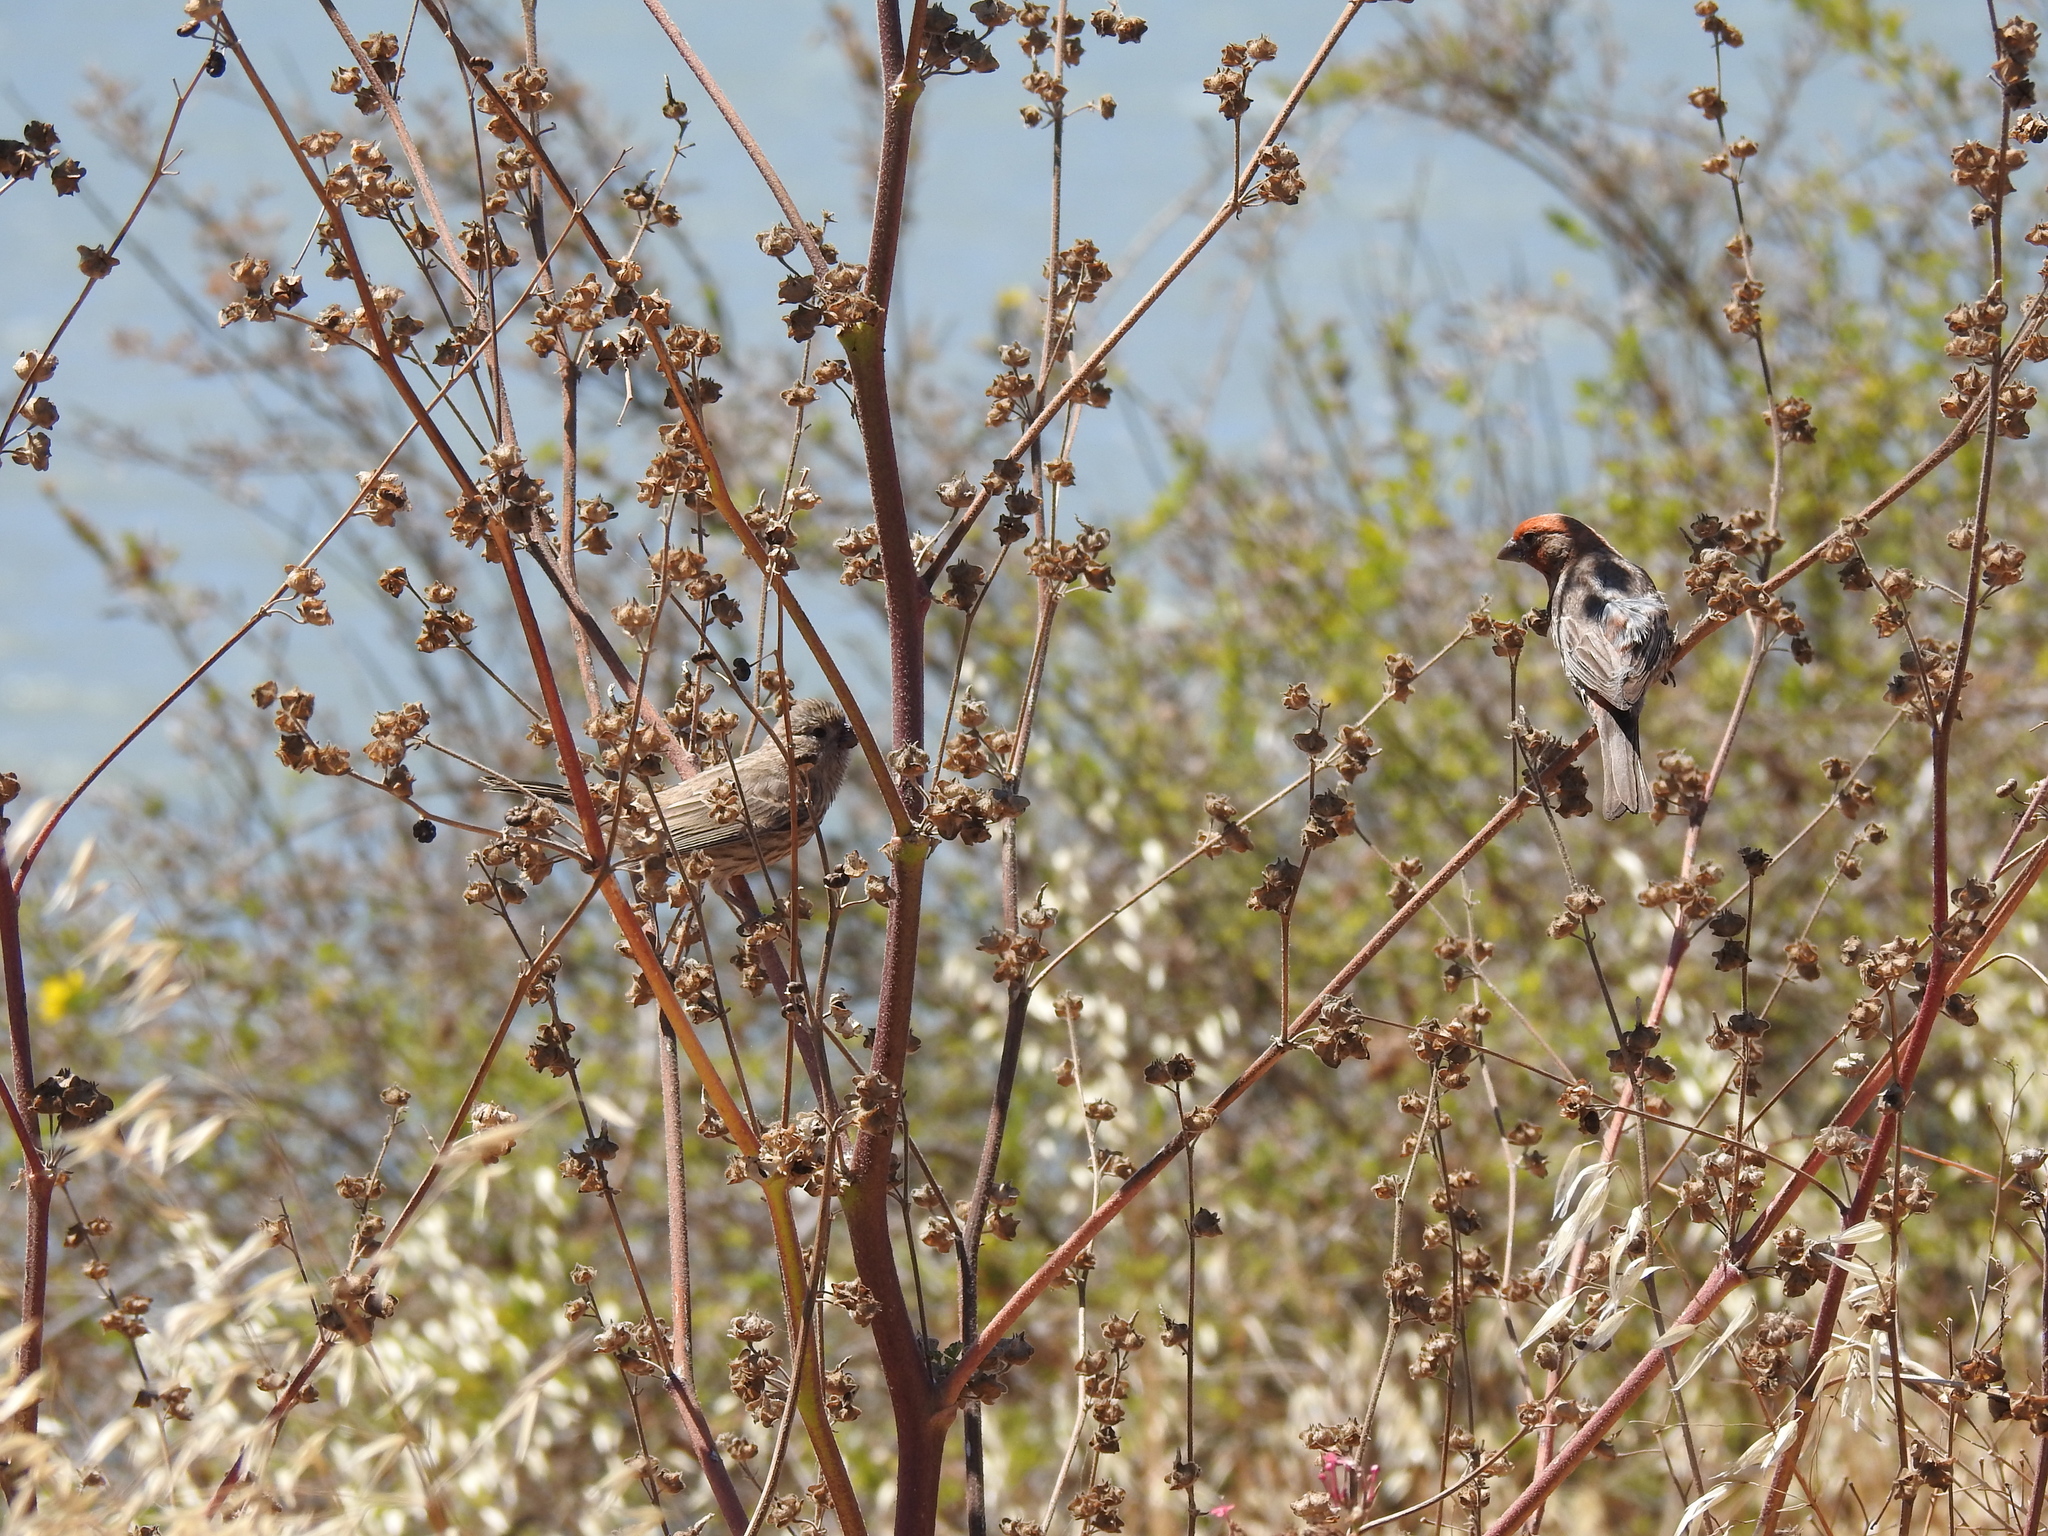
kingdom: Animalia
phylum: Chordata
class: Aves
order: Passeriformes
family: Fringillidae
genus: Haemorhous
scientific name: Haemorhous mexicanus
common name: House finch
